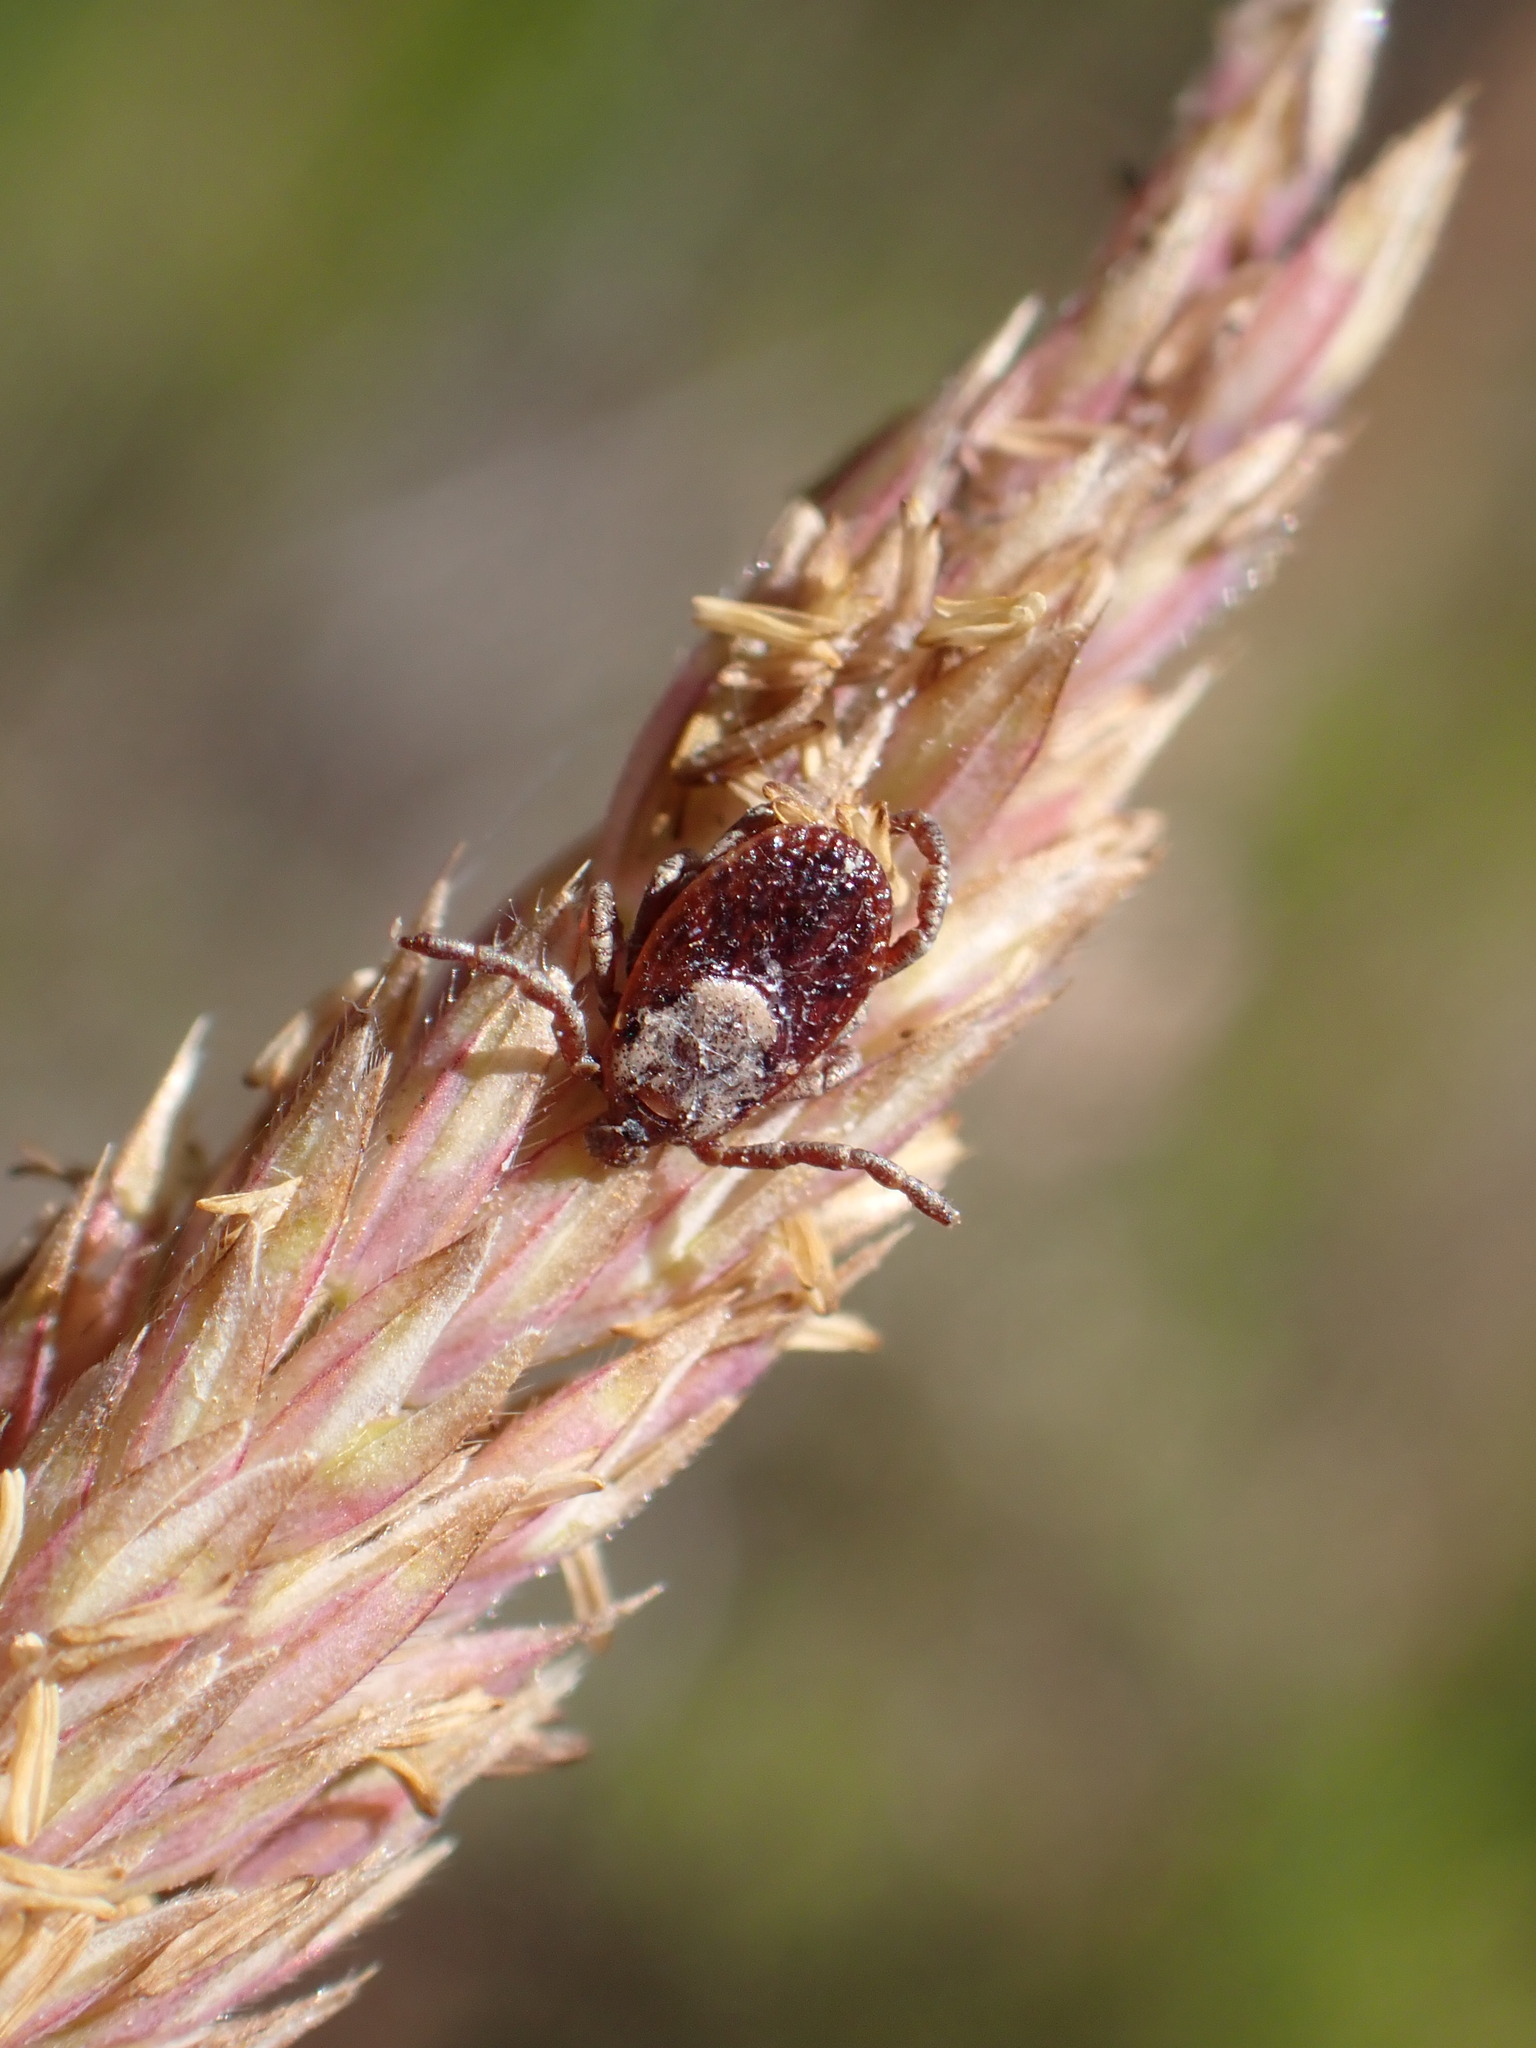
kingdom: Animalia
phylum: Arthropoda
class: Arachnida
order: Ixodida
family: Ixodidae
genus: Dermacentor
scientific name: Dermacentor occidentalis
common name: Net tick
